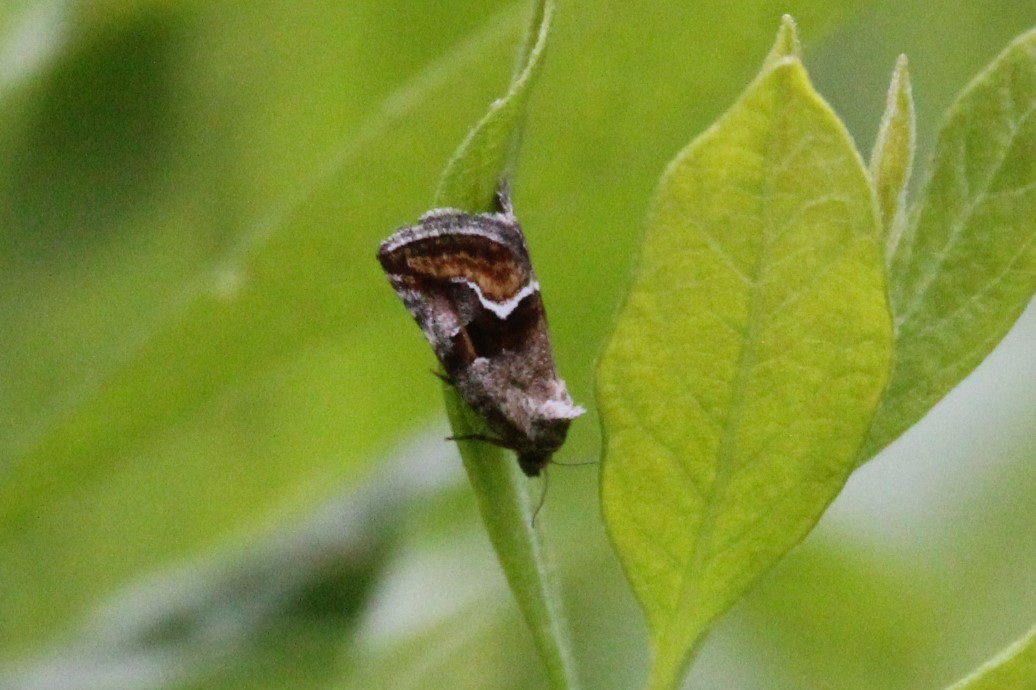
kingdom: Animalia
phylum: Arthropoda
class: Insecta
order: Lepidoptera
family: Noctuidae
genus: Deltote
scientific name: Deltote bellicula
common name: Bog glyph
